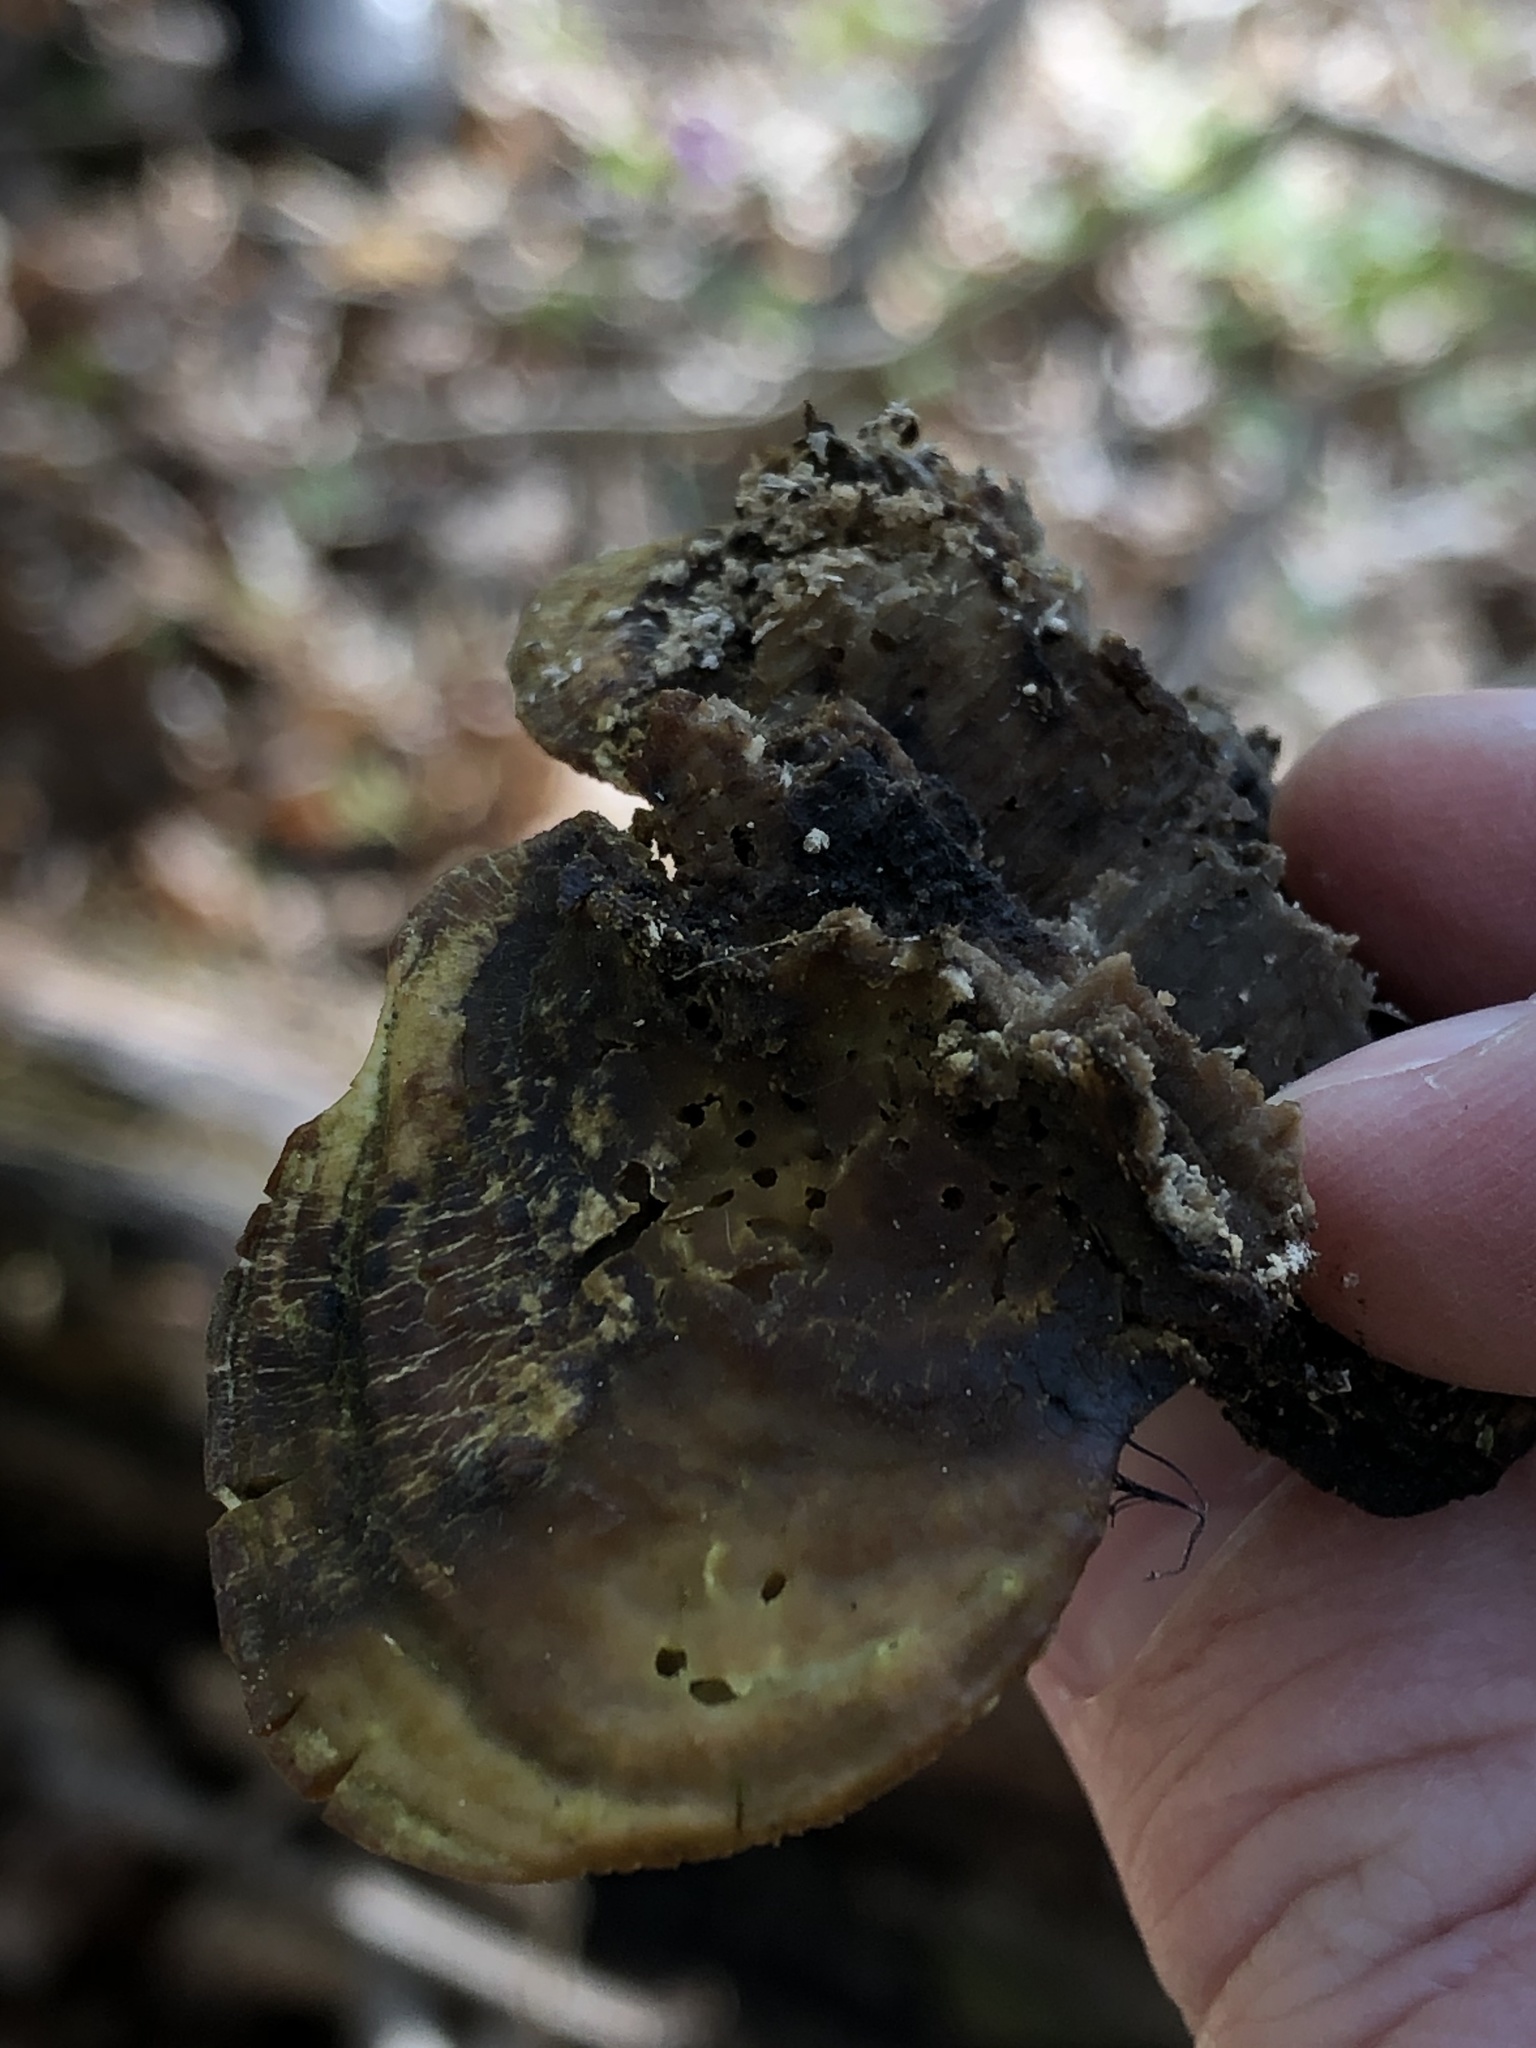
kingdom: Fungi
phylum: Basidiomycota
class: Agaricomycetes
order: Polyporales
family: Polyporaceae
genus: Trametes
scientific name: Trametes gibbosa
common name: Lumpy bracket
